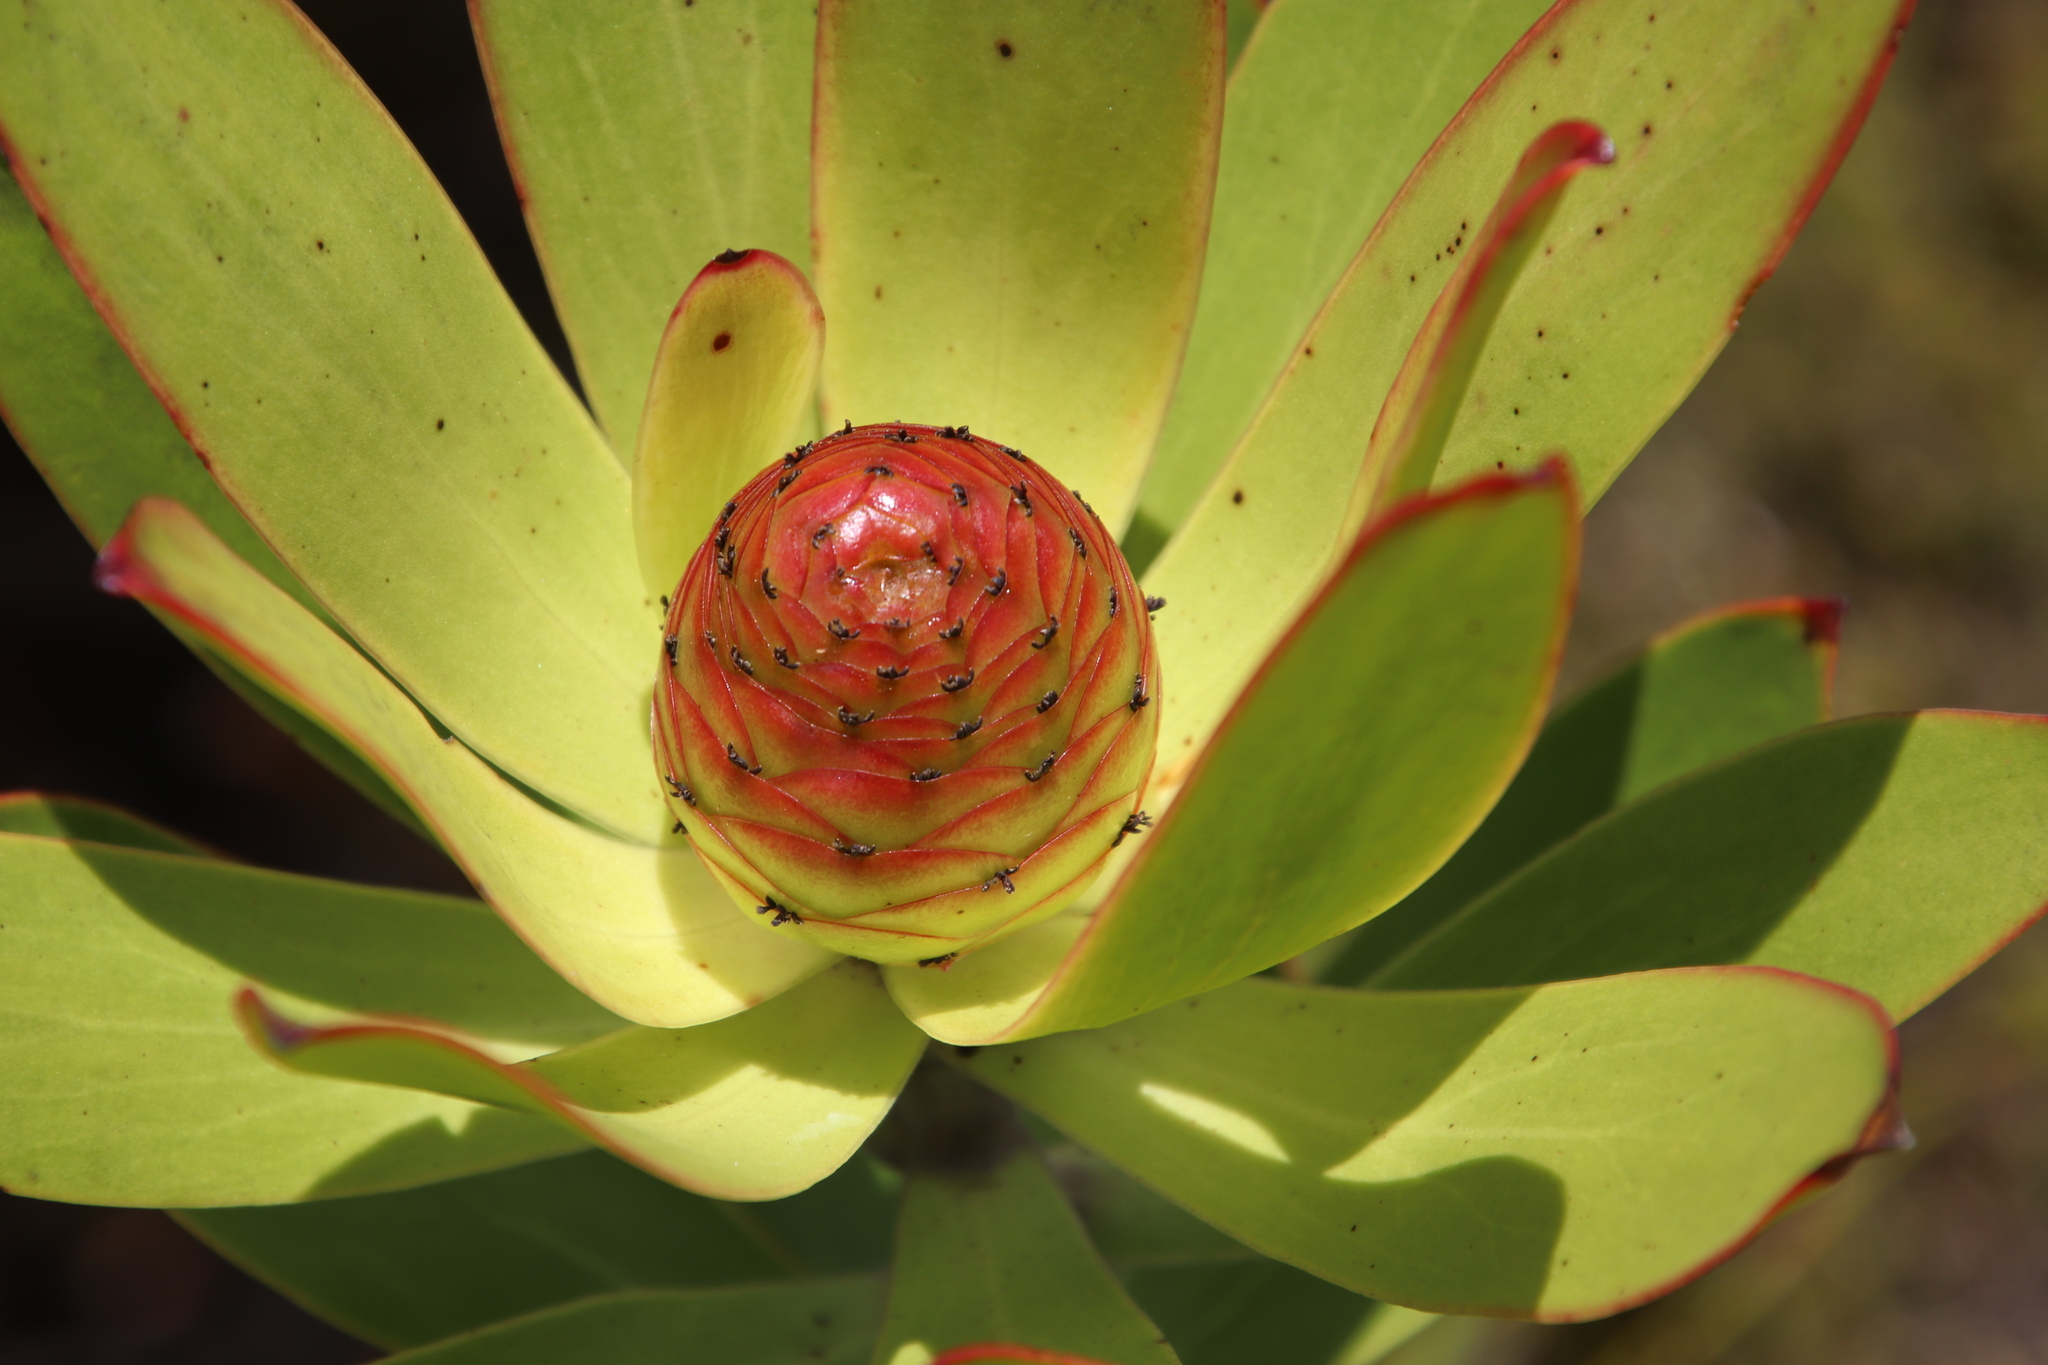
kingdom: Plantae
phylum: Tracheophyta
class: Magnoliopsida
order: Proteales
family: Proteaceae
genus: Leucadendron
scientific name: Leucadendron gandogeri
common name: Broad-leaf conebush
